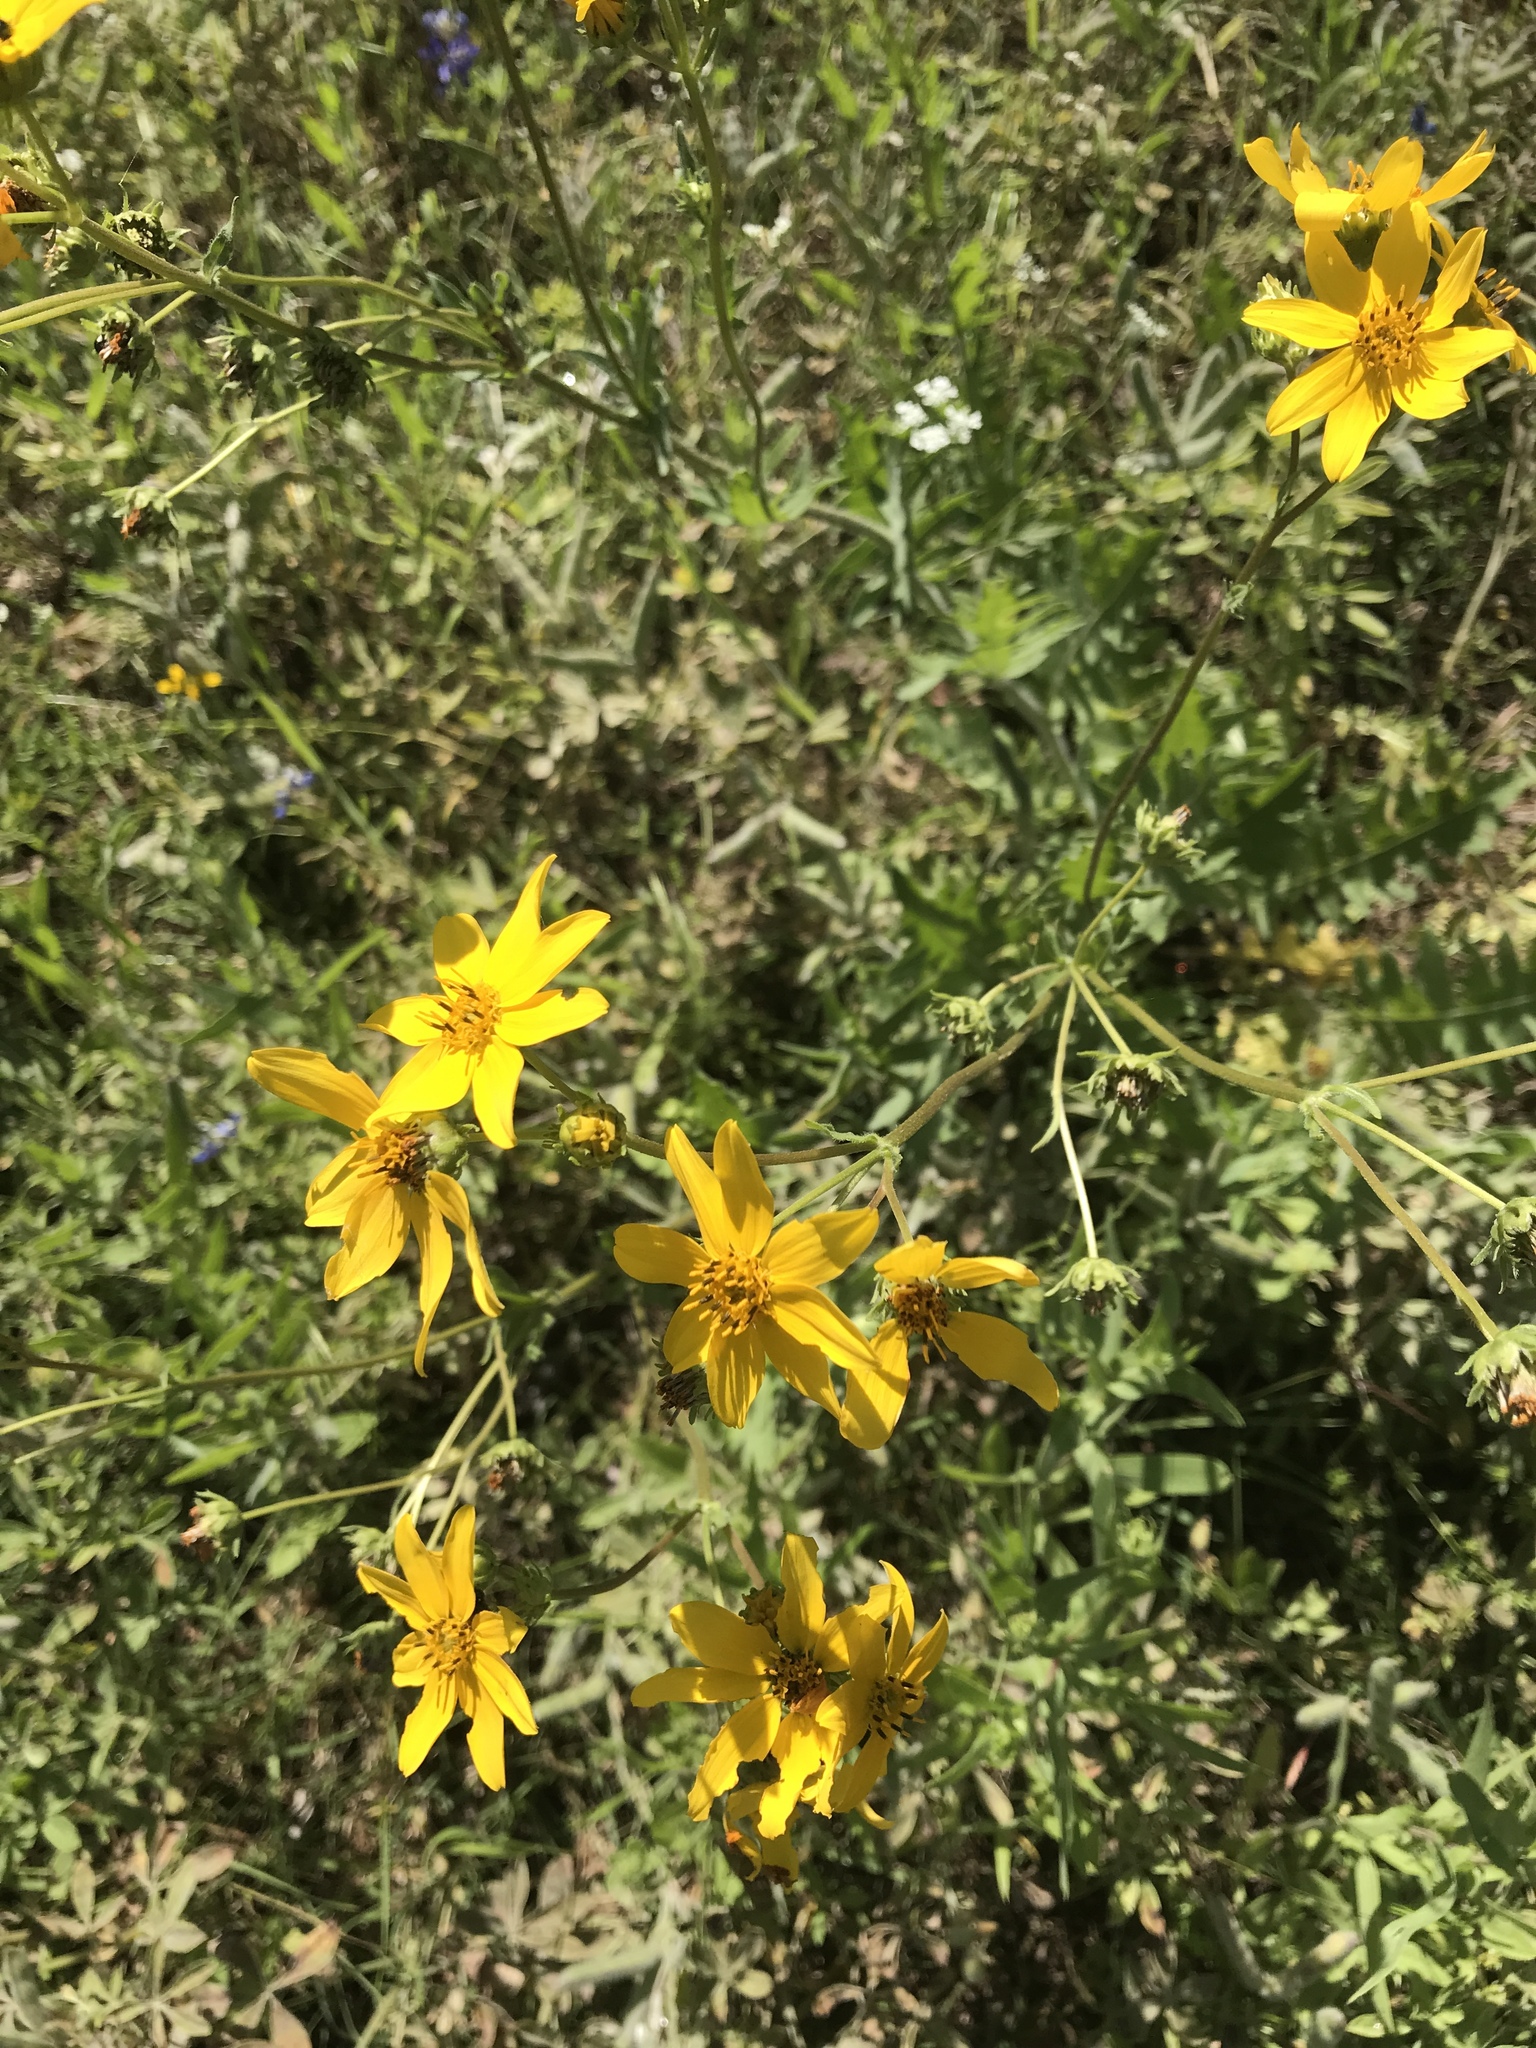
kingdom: Plantae
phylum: Tracheophyta
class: Magnoliopsida
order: Asterales
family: Asteraceae
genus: Engelmannia
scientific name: Engelmannia peristenia
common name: Engelmann's daisy
